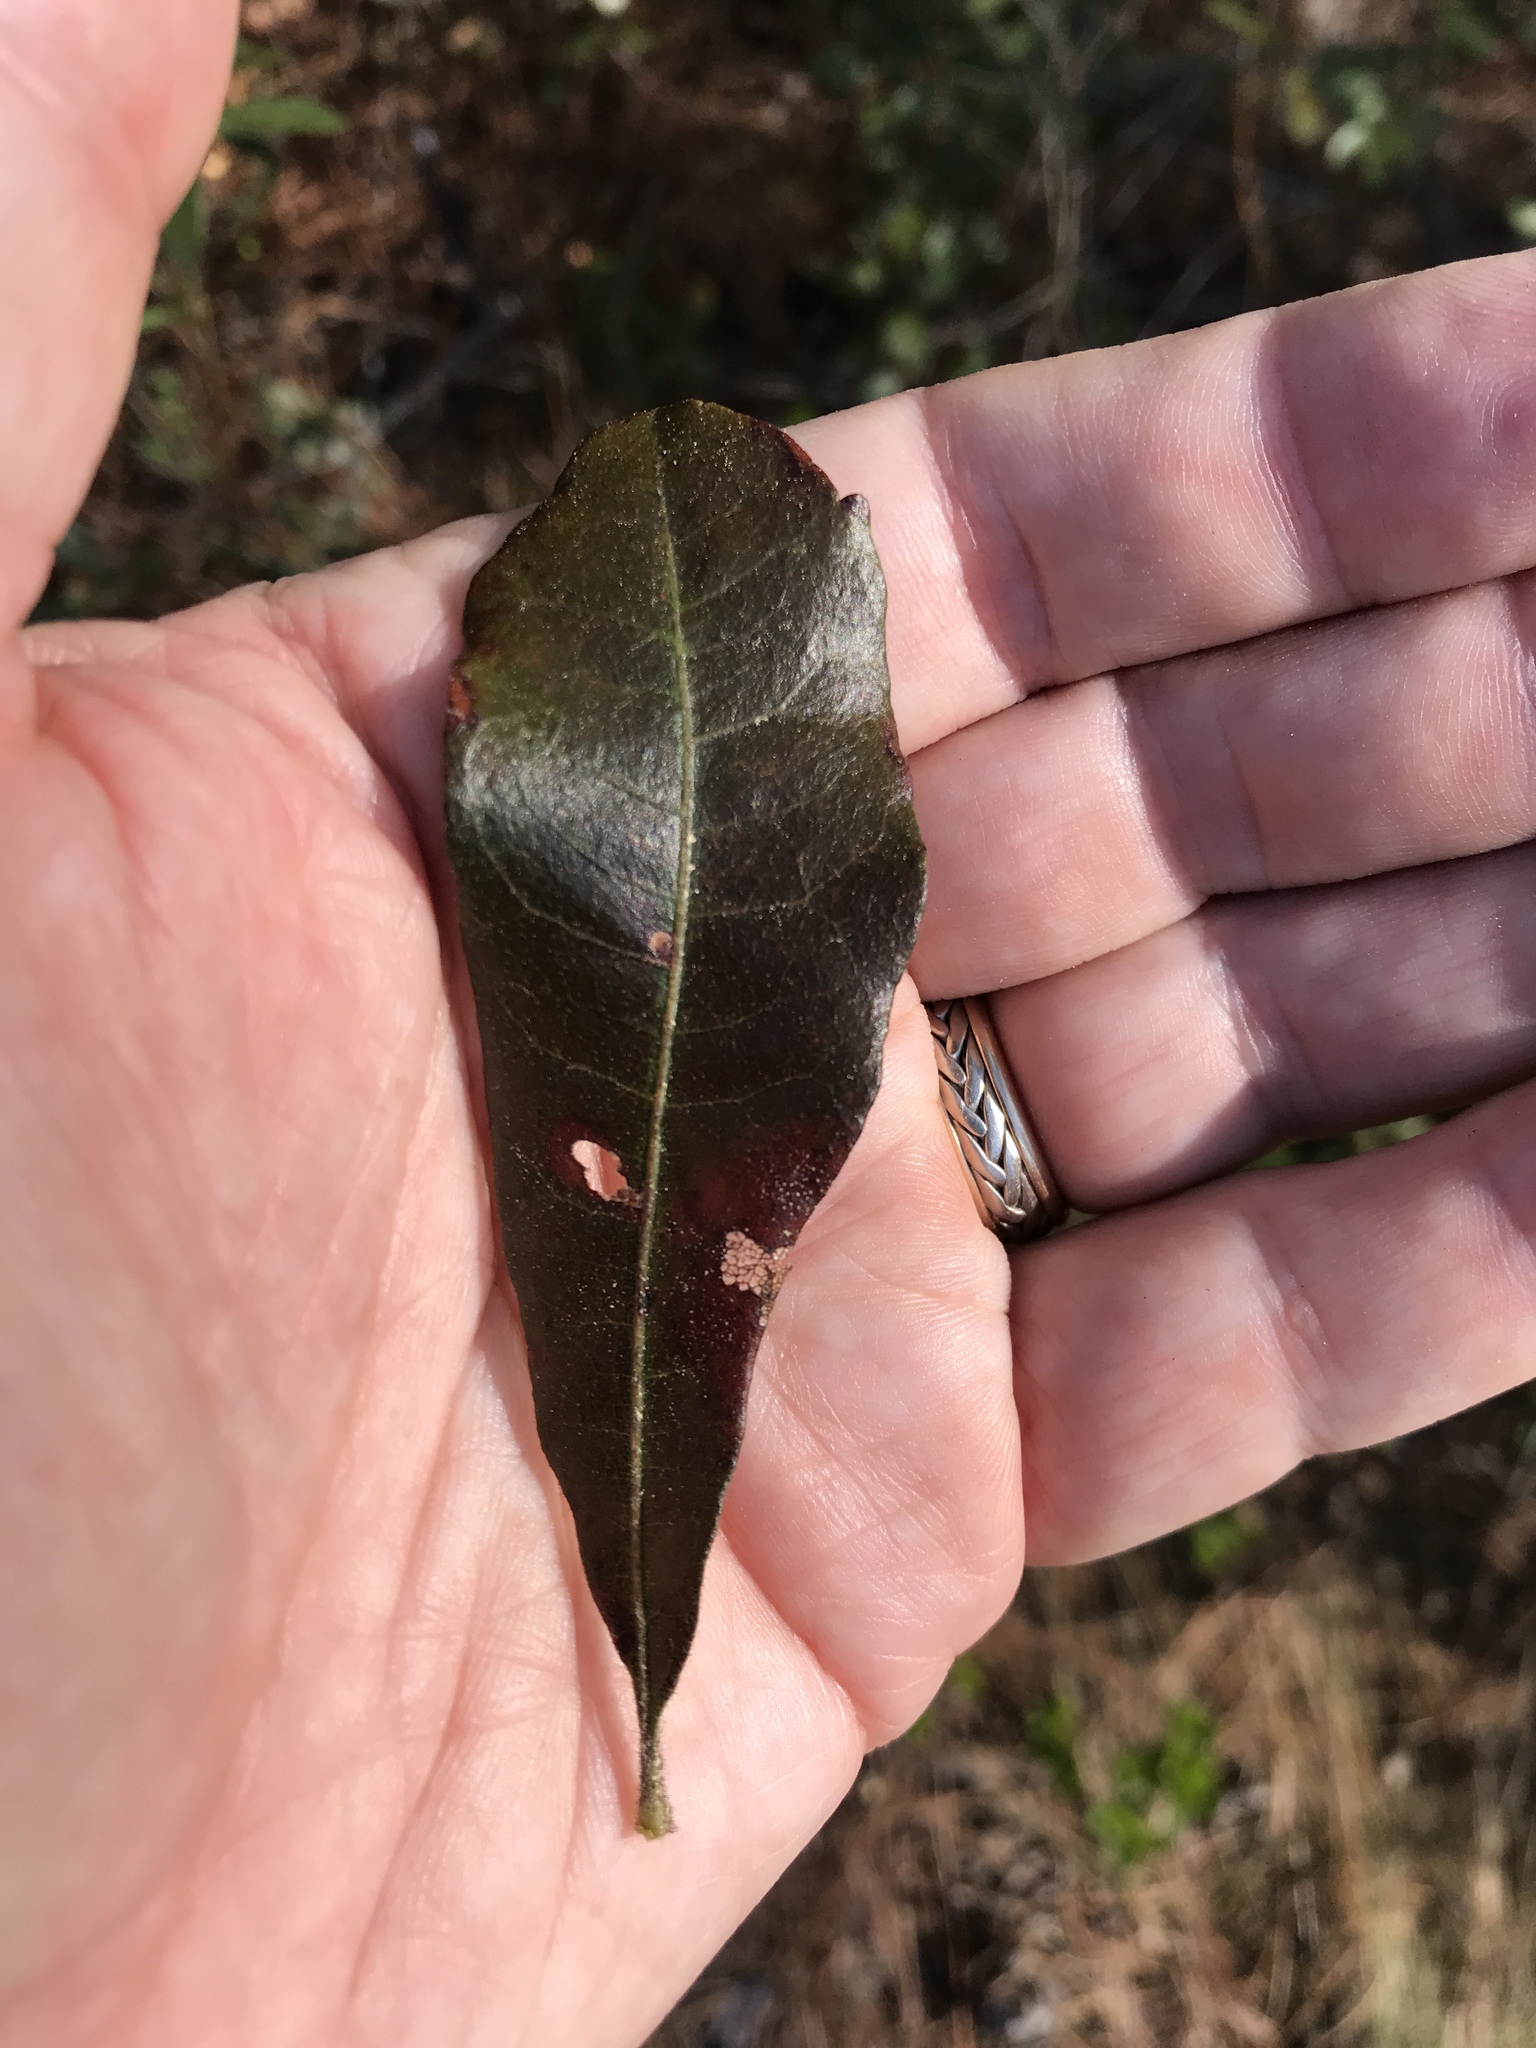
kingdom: Plantae
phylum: Tracheophyta
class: Magnoliopsida
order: Fagales
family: Myricaceae
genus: Morella
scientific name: Morella caroliniensis
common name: Evergreen bayberry
